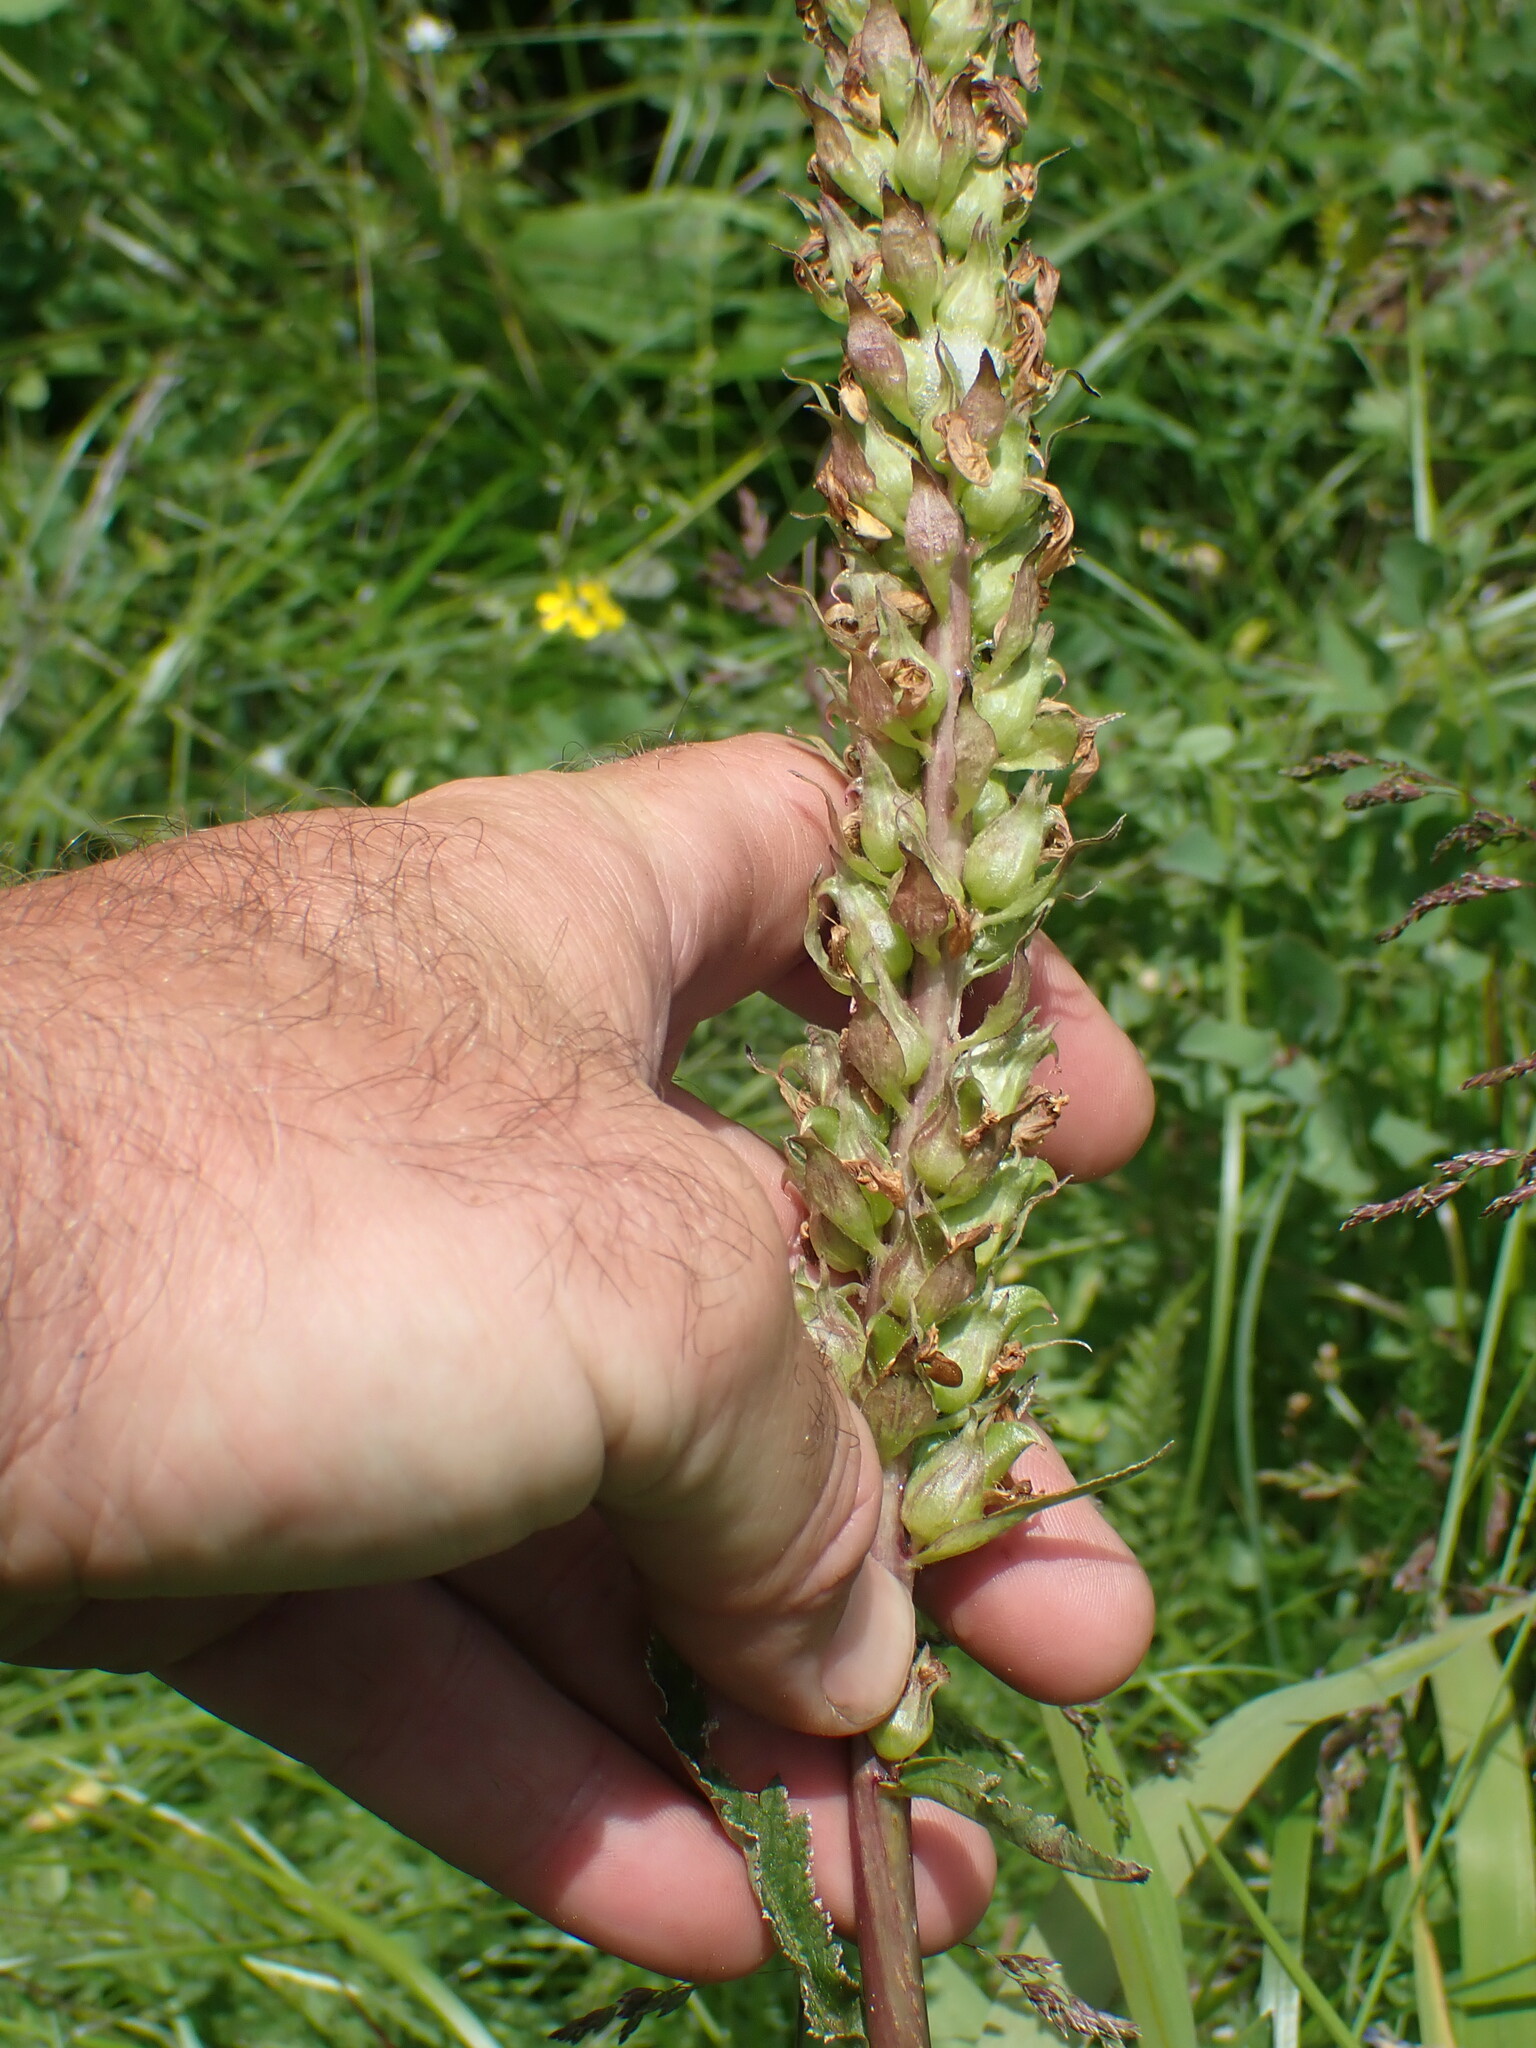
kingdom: Plantae
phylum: Tracheophyta
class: Magnoliopsida
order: Lamiales
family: Orobanchaceae
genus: Pedicularis
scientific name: Pedicularis bracteosa
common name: Bracted lousewort
